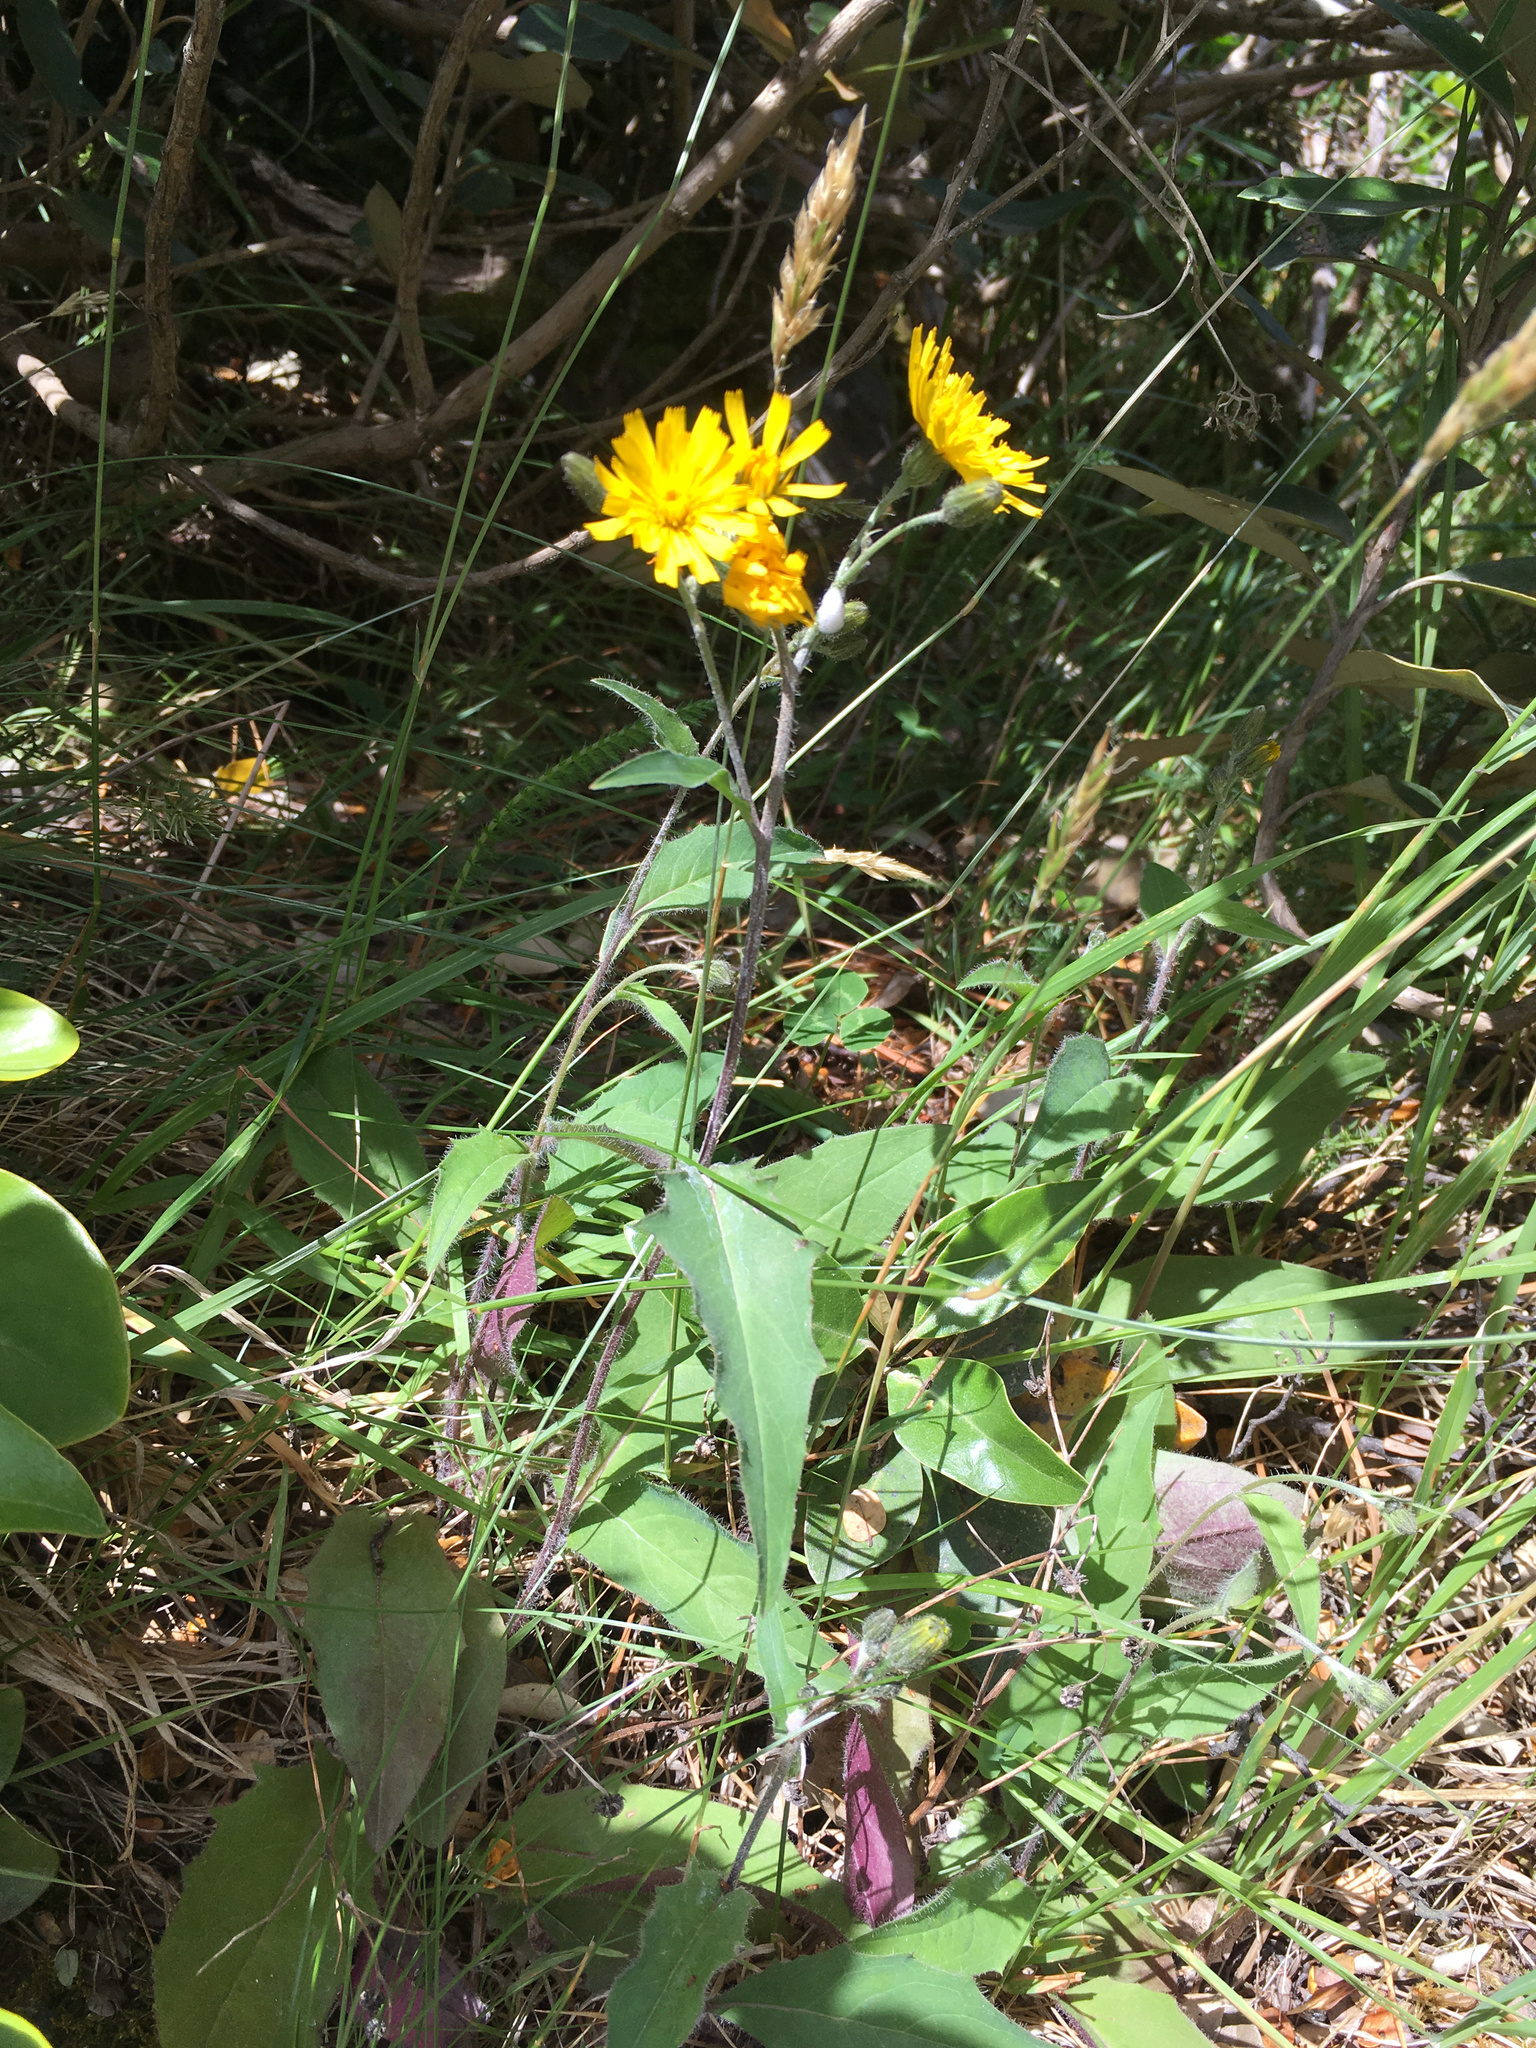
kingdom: Plantae
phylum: Tracheophyta
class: Magnoliopsida
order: Asterales
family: Asteraceae
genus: Hieracium
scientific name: Hieracium lepidulum
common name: Irregular-toothed hawkweed
